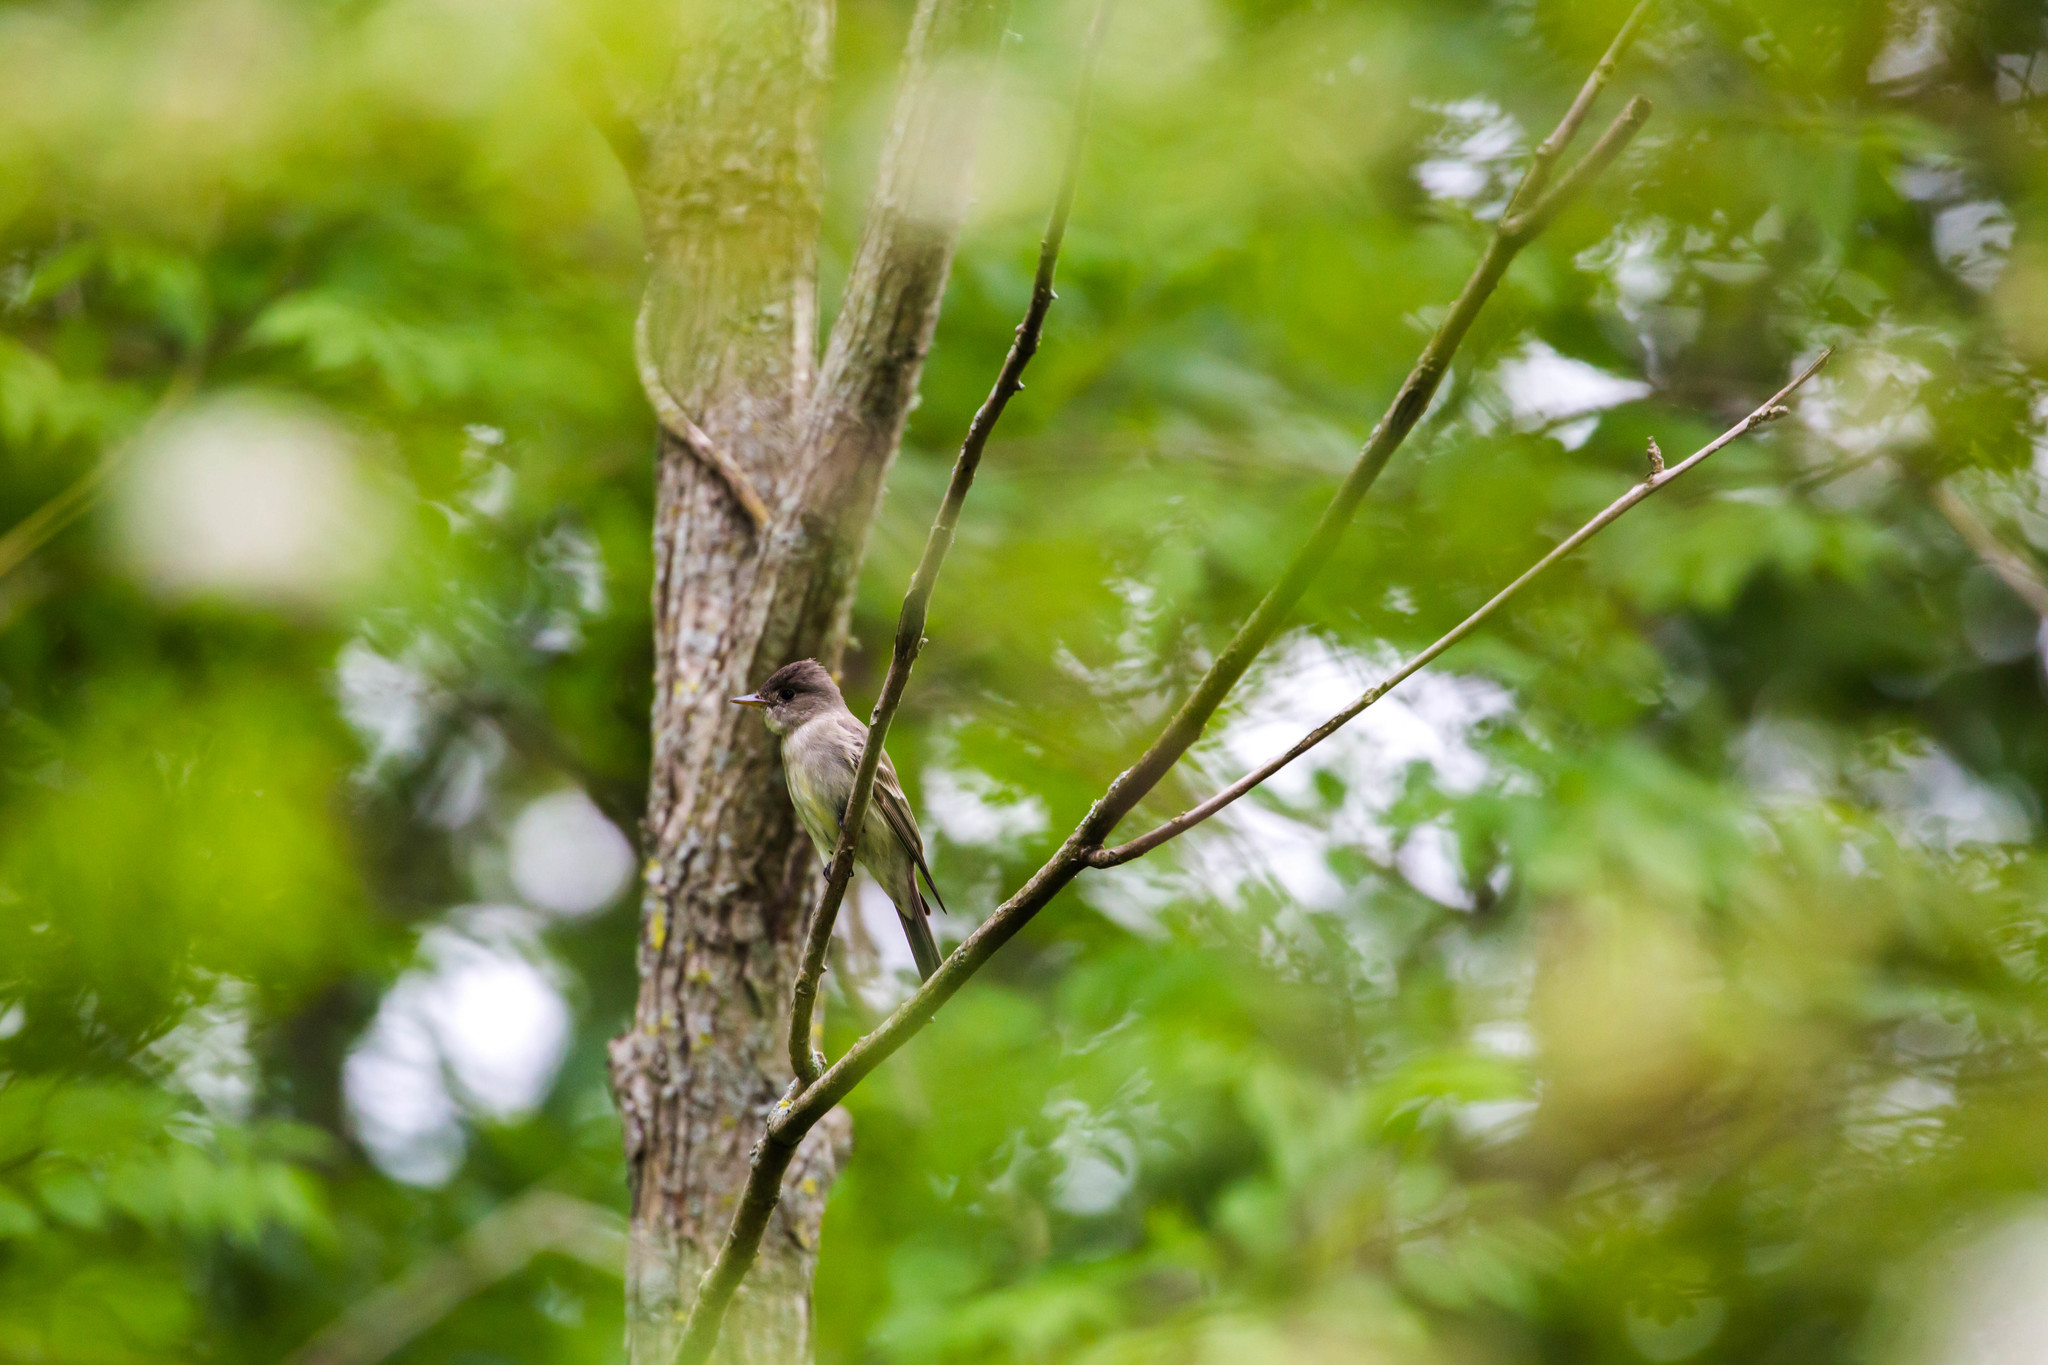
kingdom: Animalia
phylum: Chordata
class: Aves
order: Passeriformes
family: Tyrannidae
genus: Contopus
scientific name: Contopus virens
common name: Eastern wood-pewee
